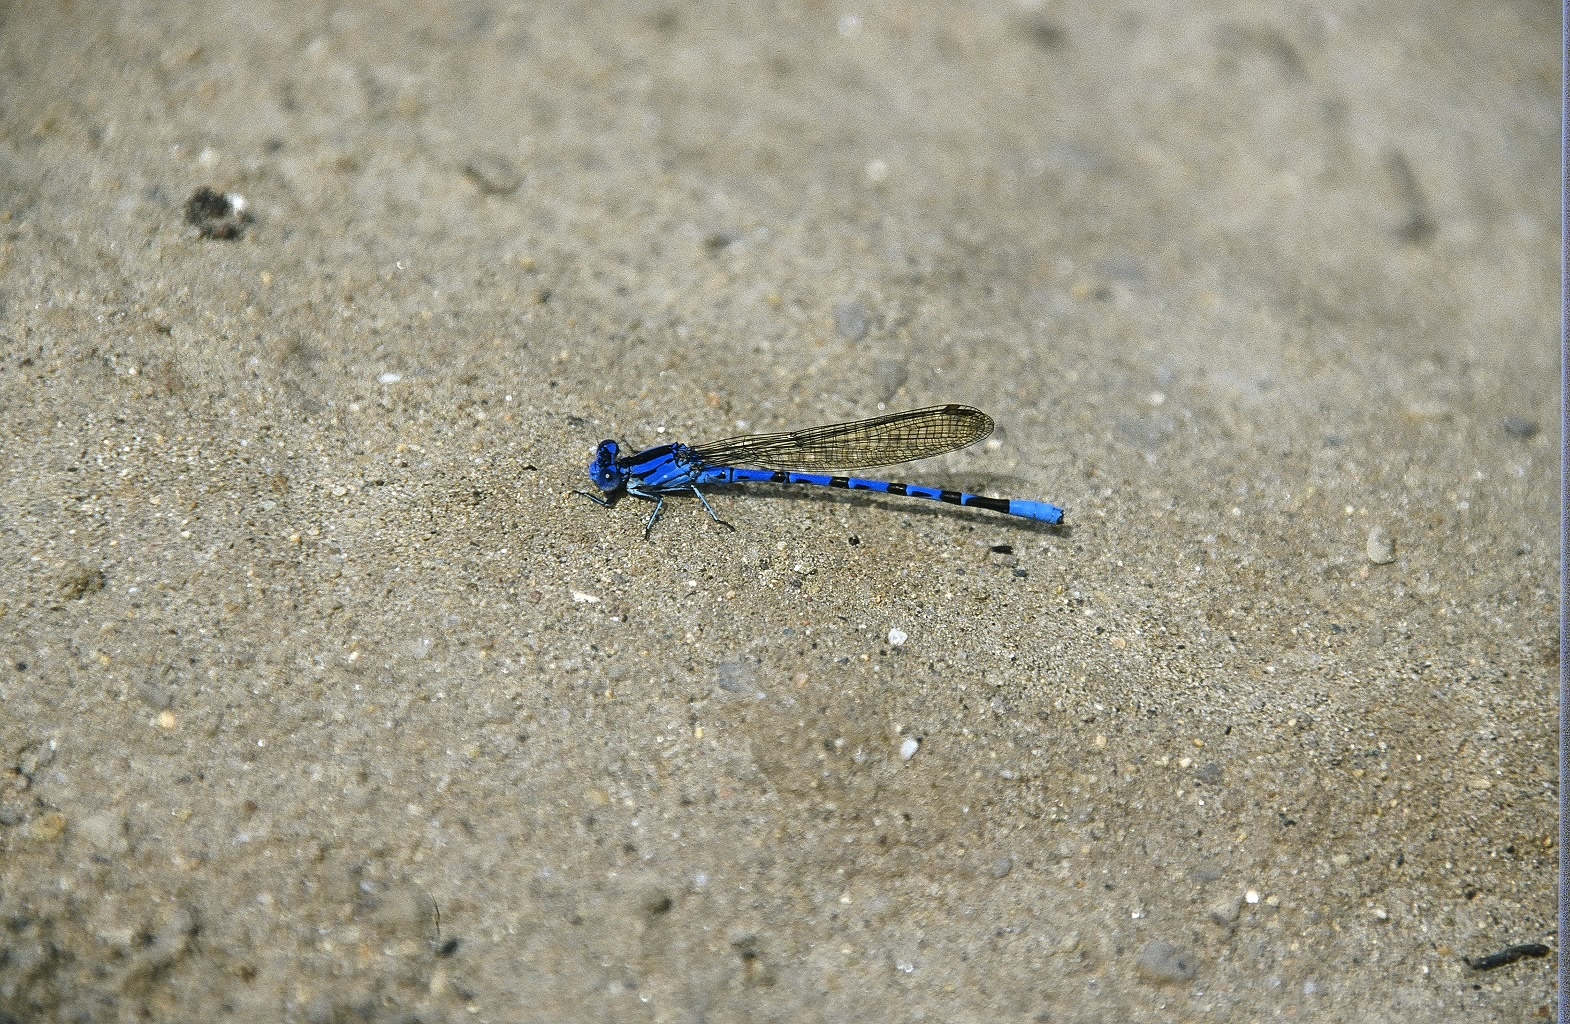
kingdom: Animalia
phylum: Arthropoda
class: Insecta
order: Odonata
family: Coenagrionidae
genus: Argia
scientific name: Argia vivida
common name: Vivid dancer
